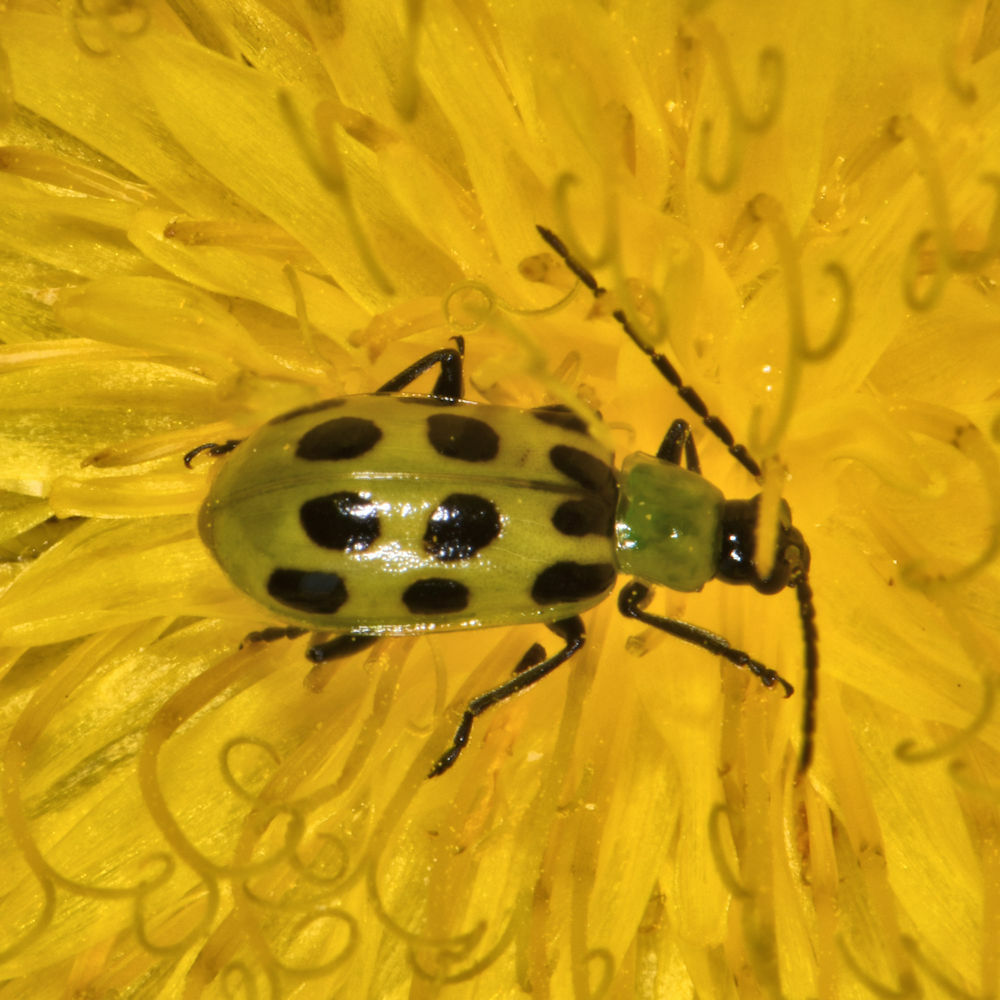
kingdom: Animalia
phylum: Arthropoda
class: Insecta
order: Coleoptera
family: Chrysomelidae
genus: Diabrotica
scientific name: Diabrotica undecimpunctata
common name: Spotted cucumber beetle
